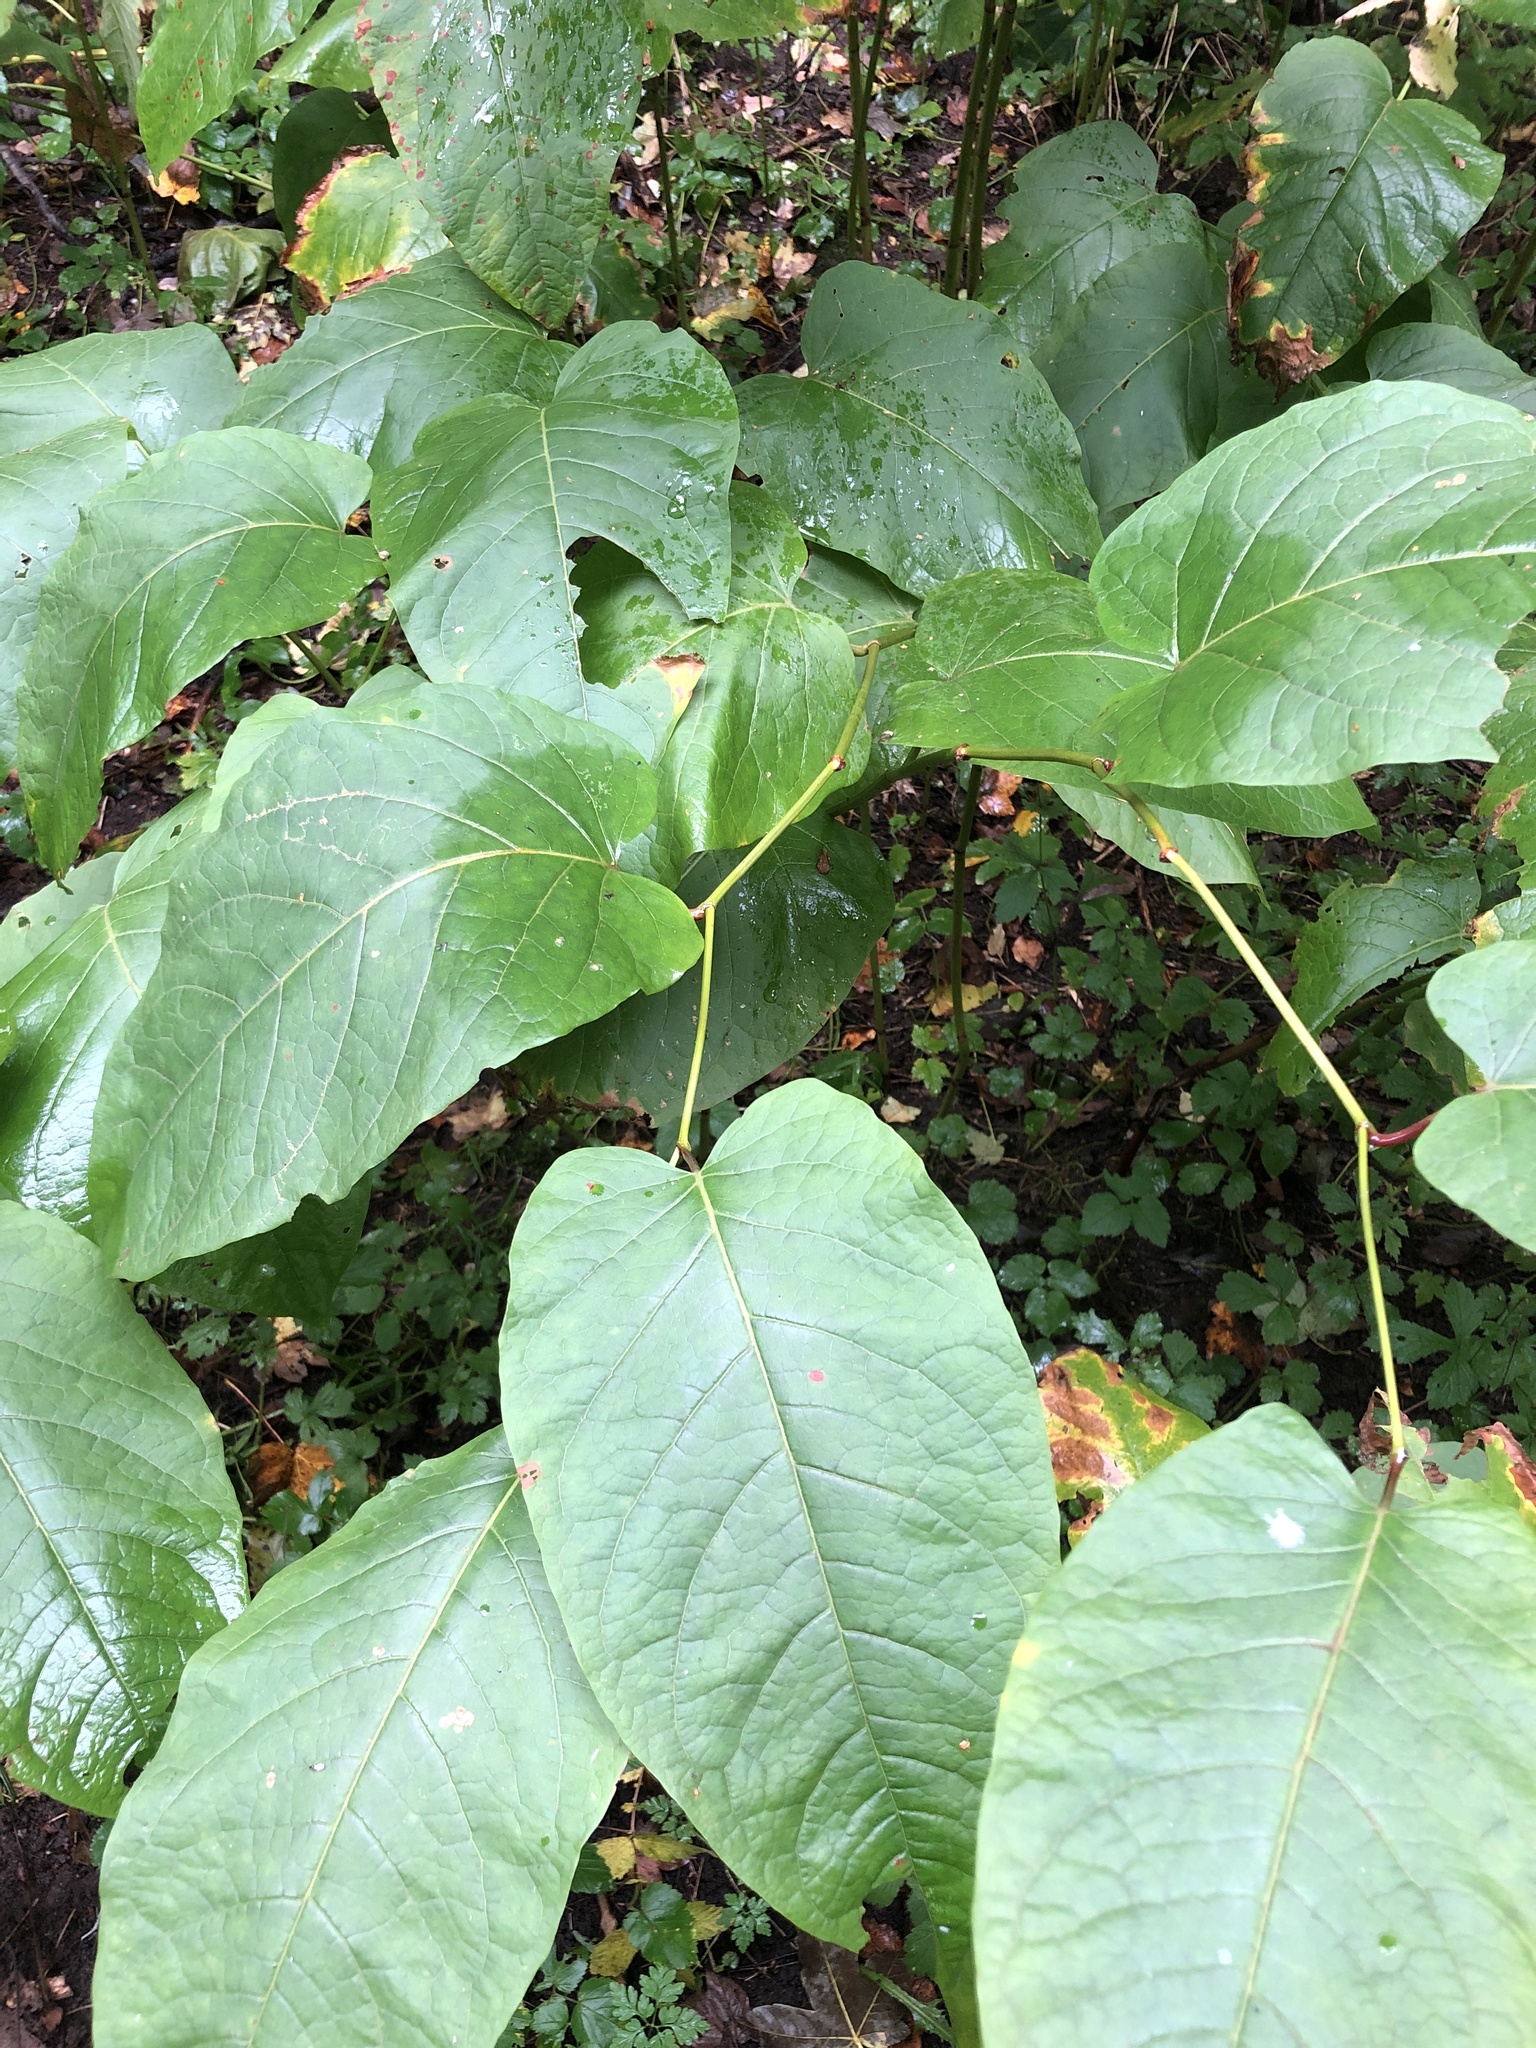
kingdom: Plantae
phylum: Tracheophyta
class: Magnoliopsida
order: Caryophyllales
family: Polygonaceae
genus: Reynoutria
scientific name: Reynoutria sachalinensis
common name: Giant knotweed
